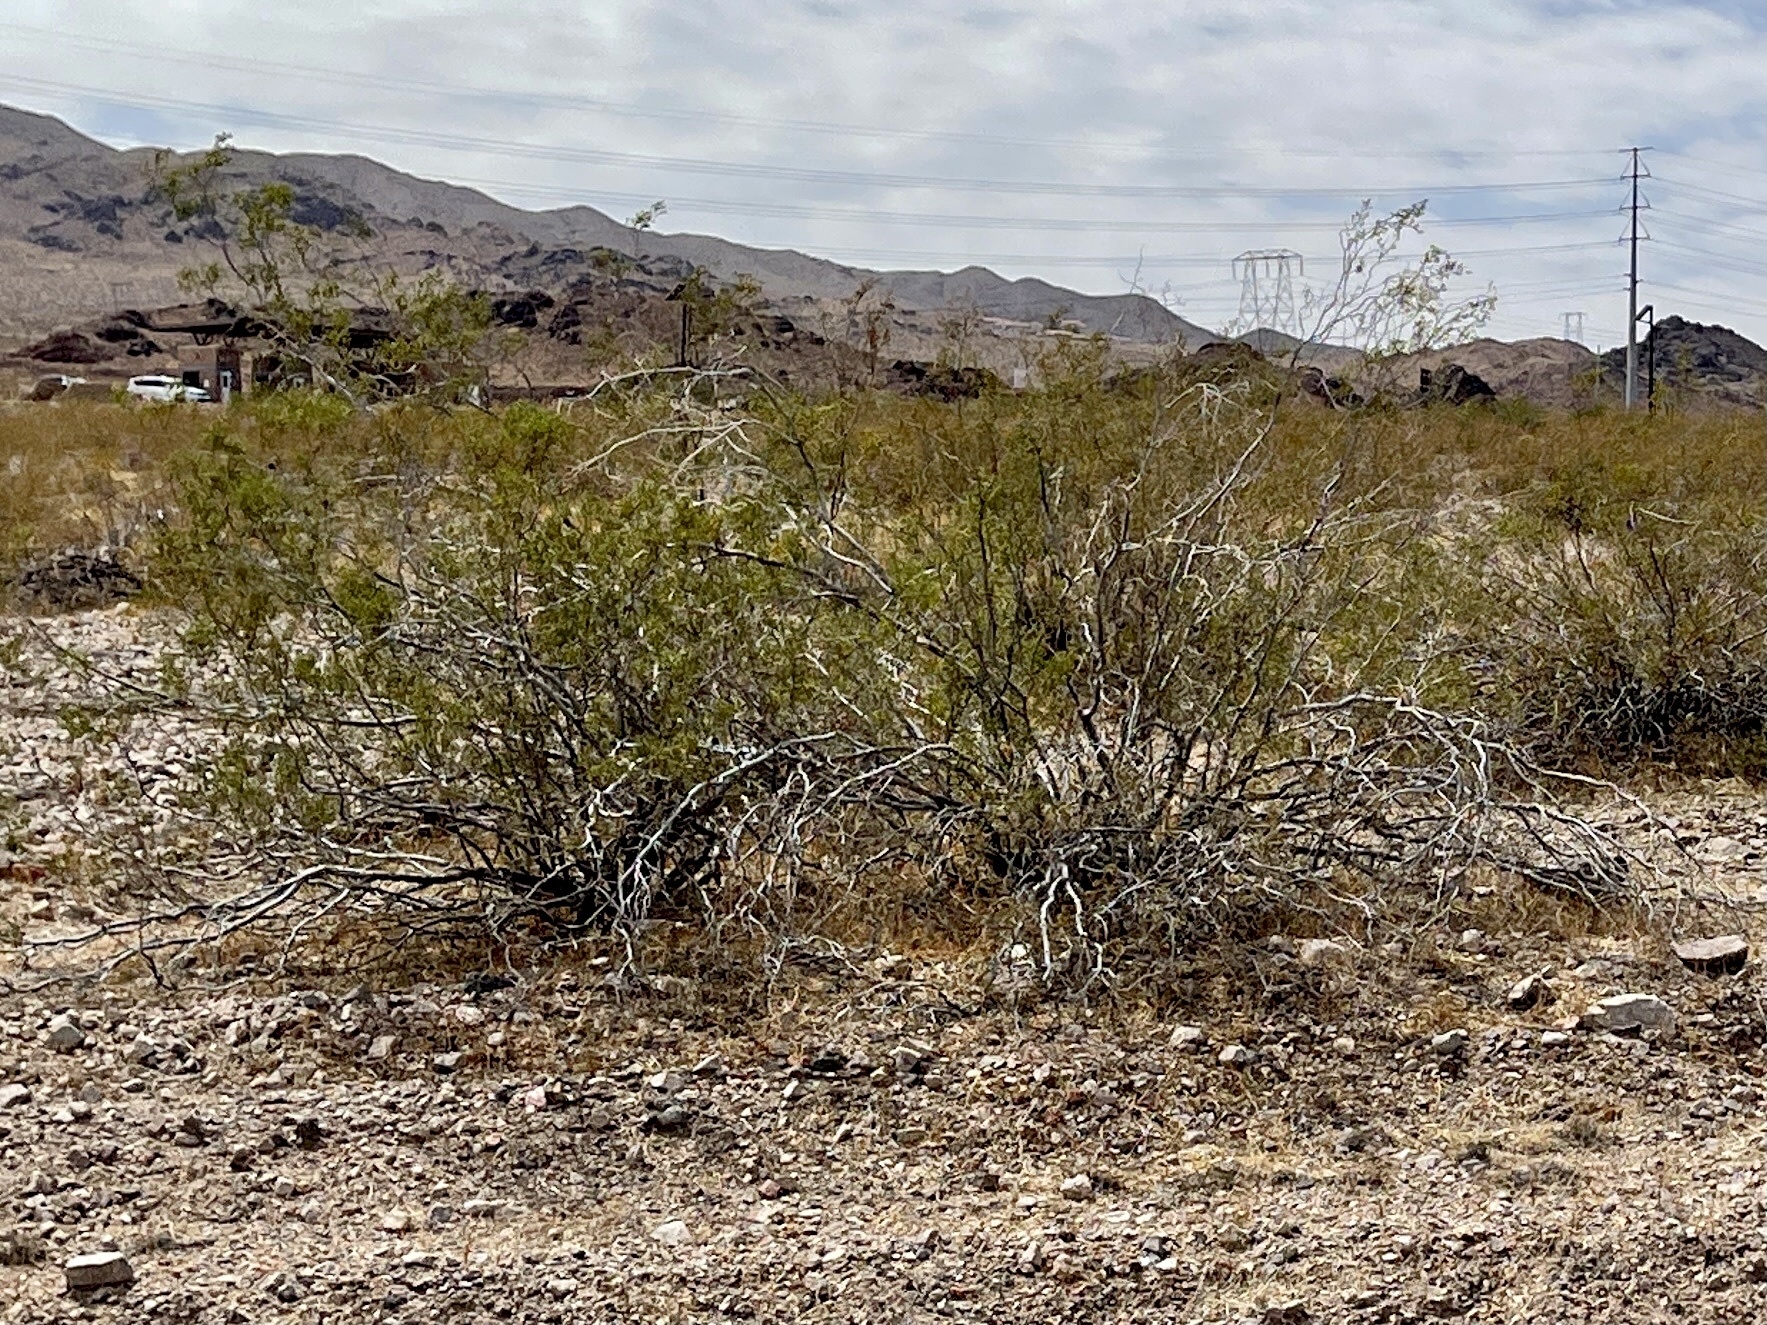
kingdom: Plantae
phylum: Tracheophyta
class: Magnoliopsida
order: Zygophyllales
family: Zygophyllaceae
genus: Larrea
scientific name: Larrea tridentata
